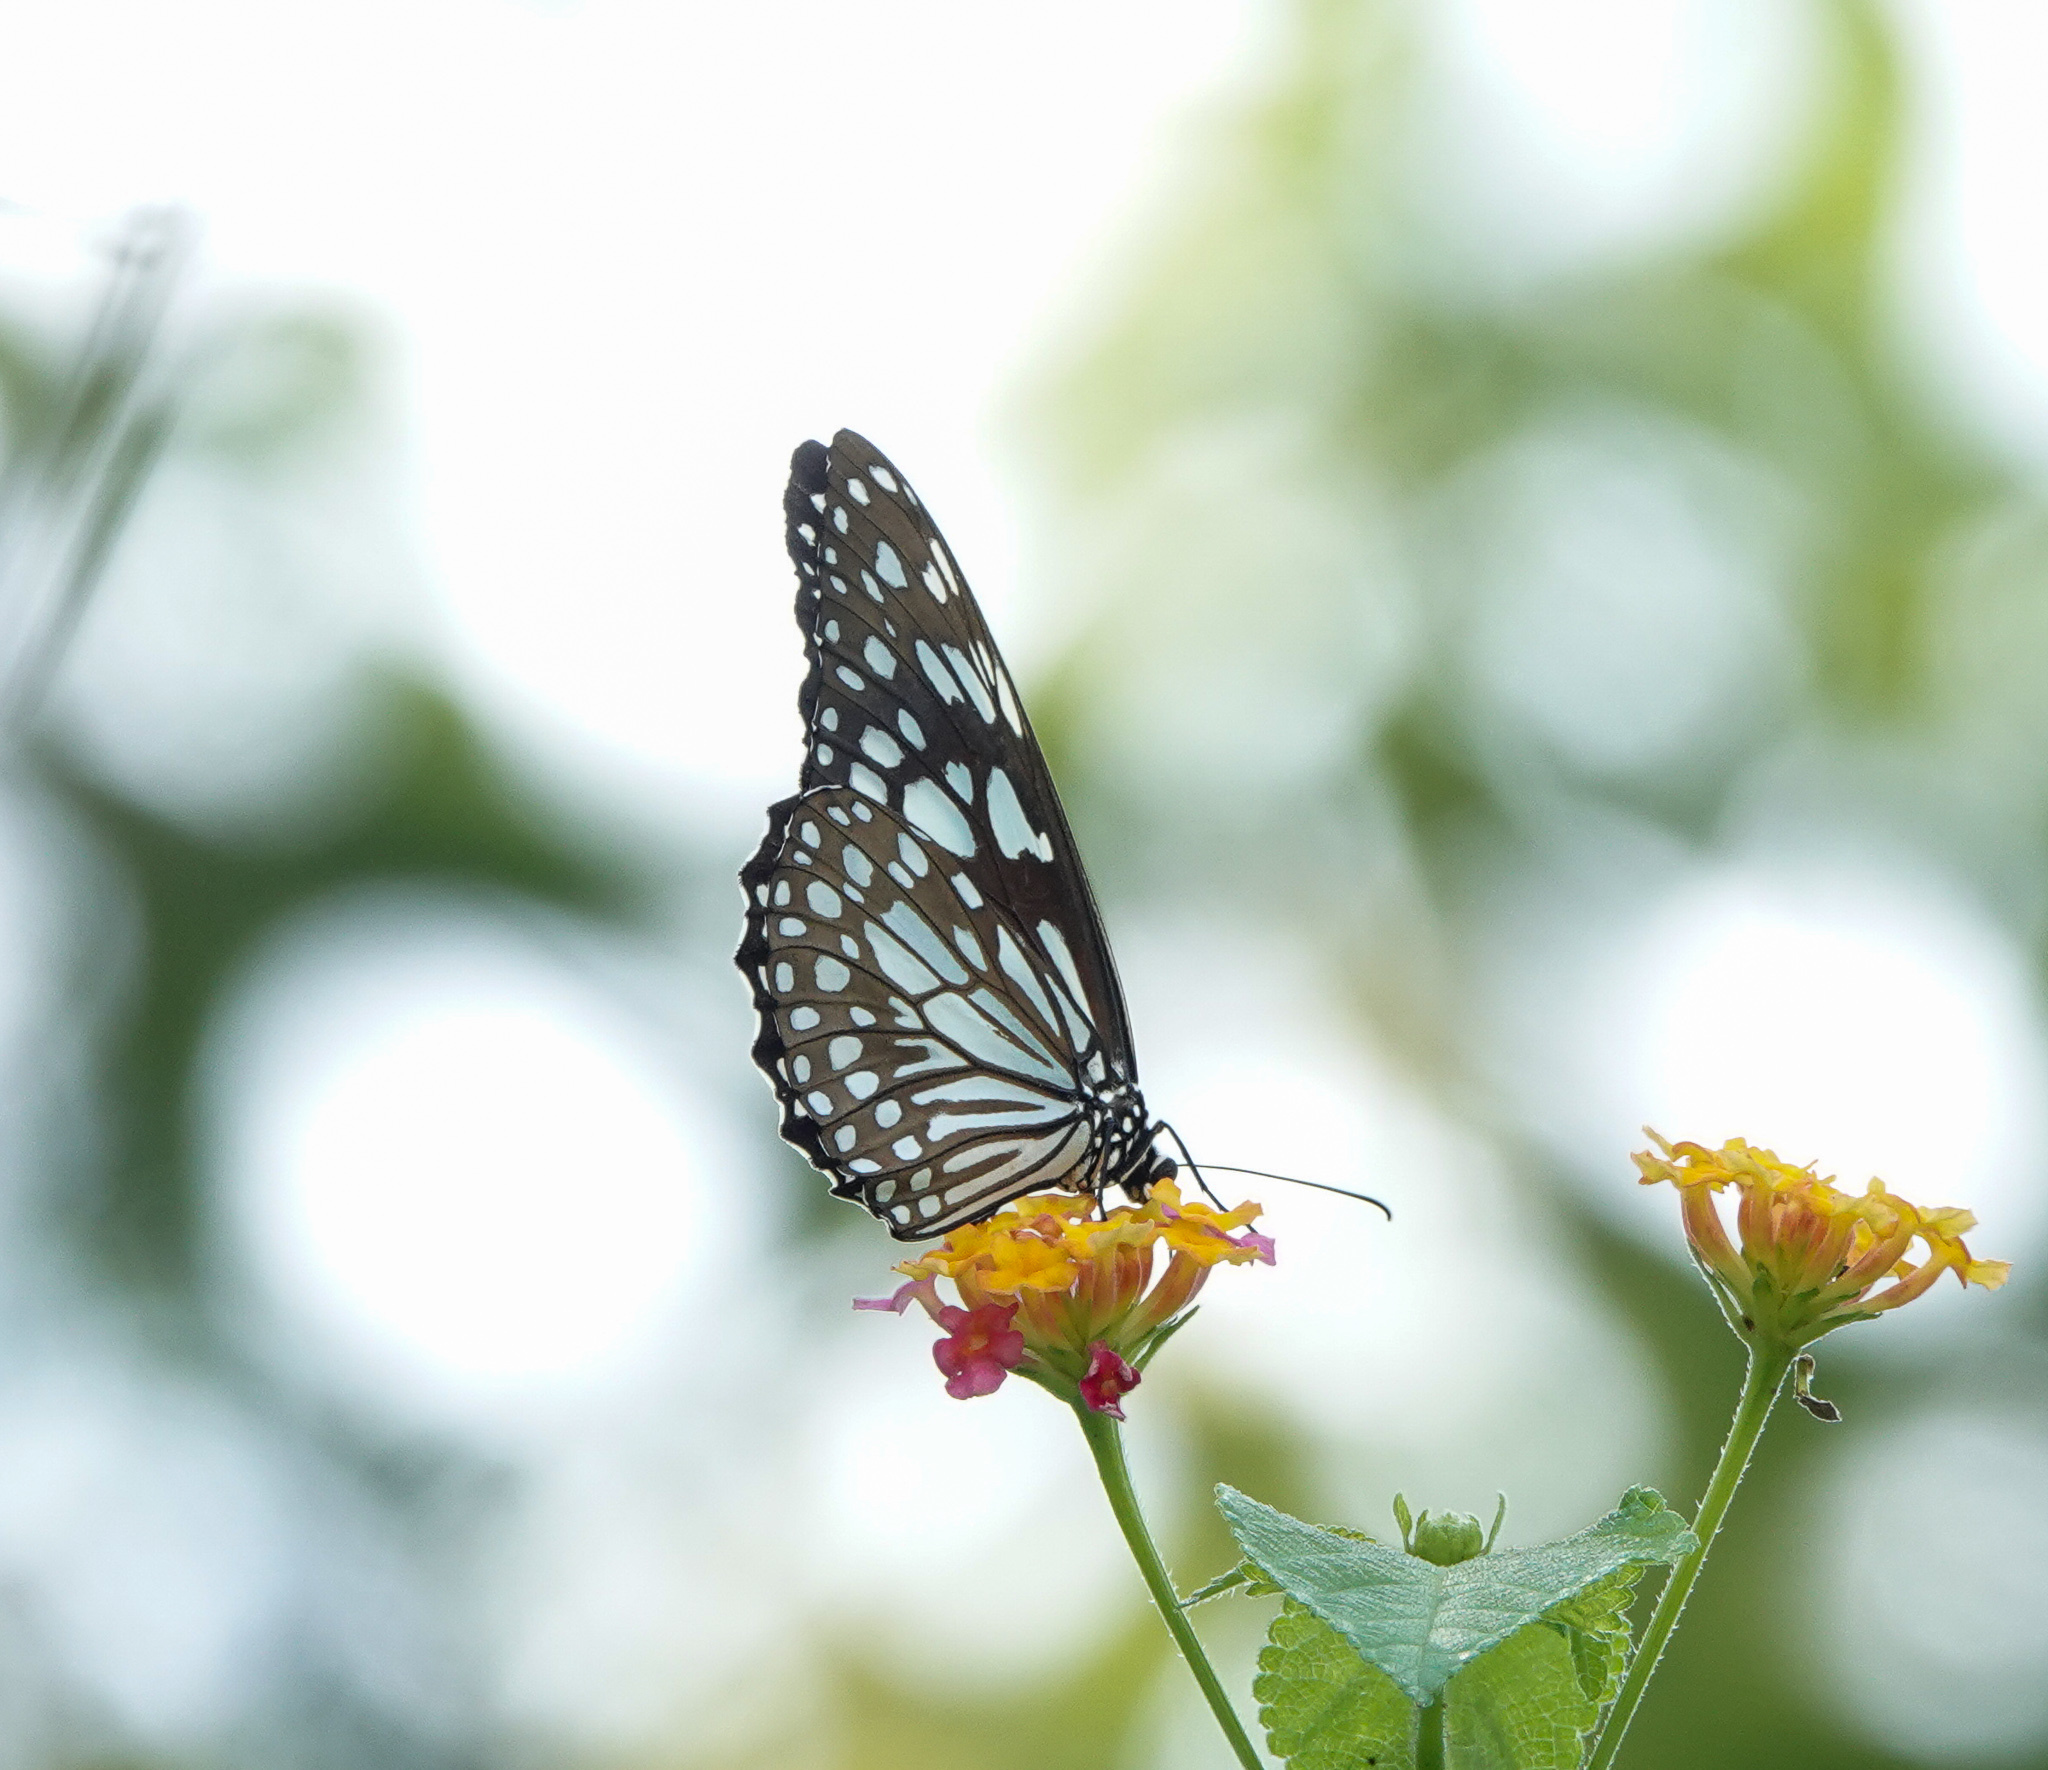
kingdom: Animalia
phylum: Arthropoda
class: Insecta
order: Lepidoptera
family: Nymphalidae
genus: Tirumala
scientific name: Tirumala limniace
